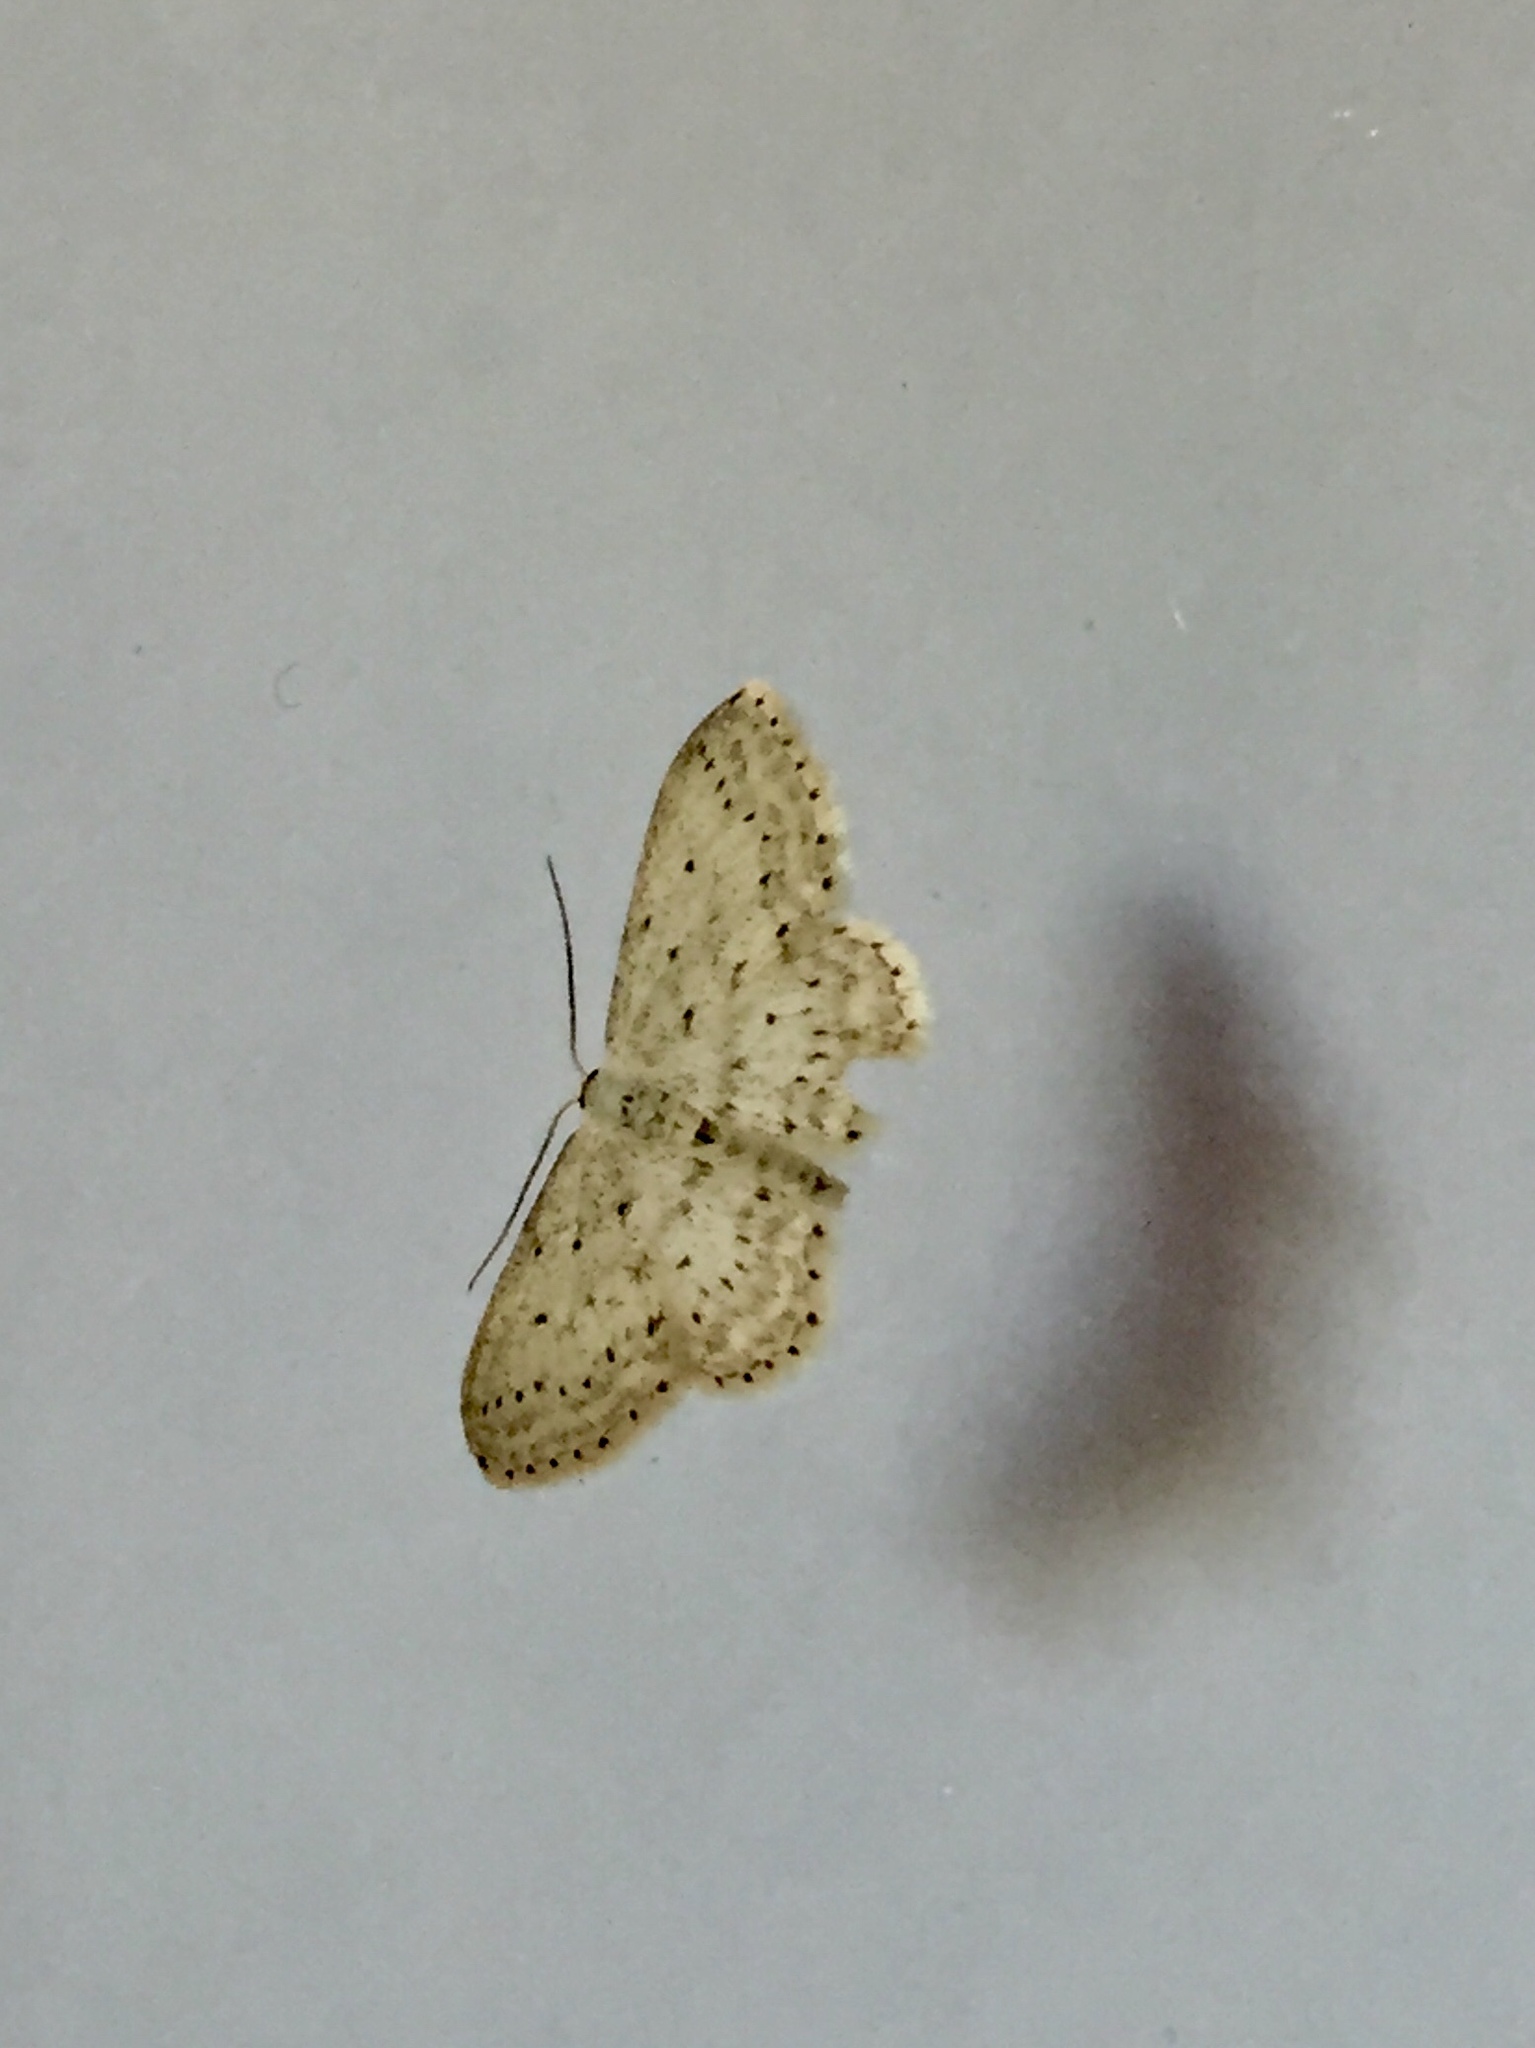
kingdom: Animalia
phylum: Arthropoda
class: Insecta
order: Lepidoptera
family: Geometridae
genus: Idaea
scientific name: Idaea seriata
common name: Small dusty wave
